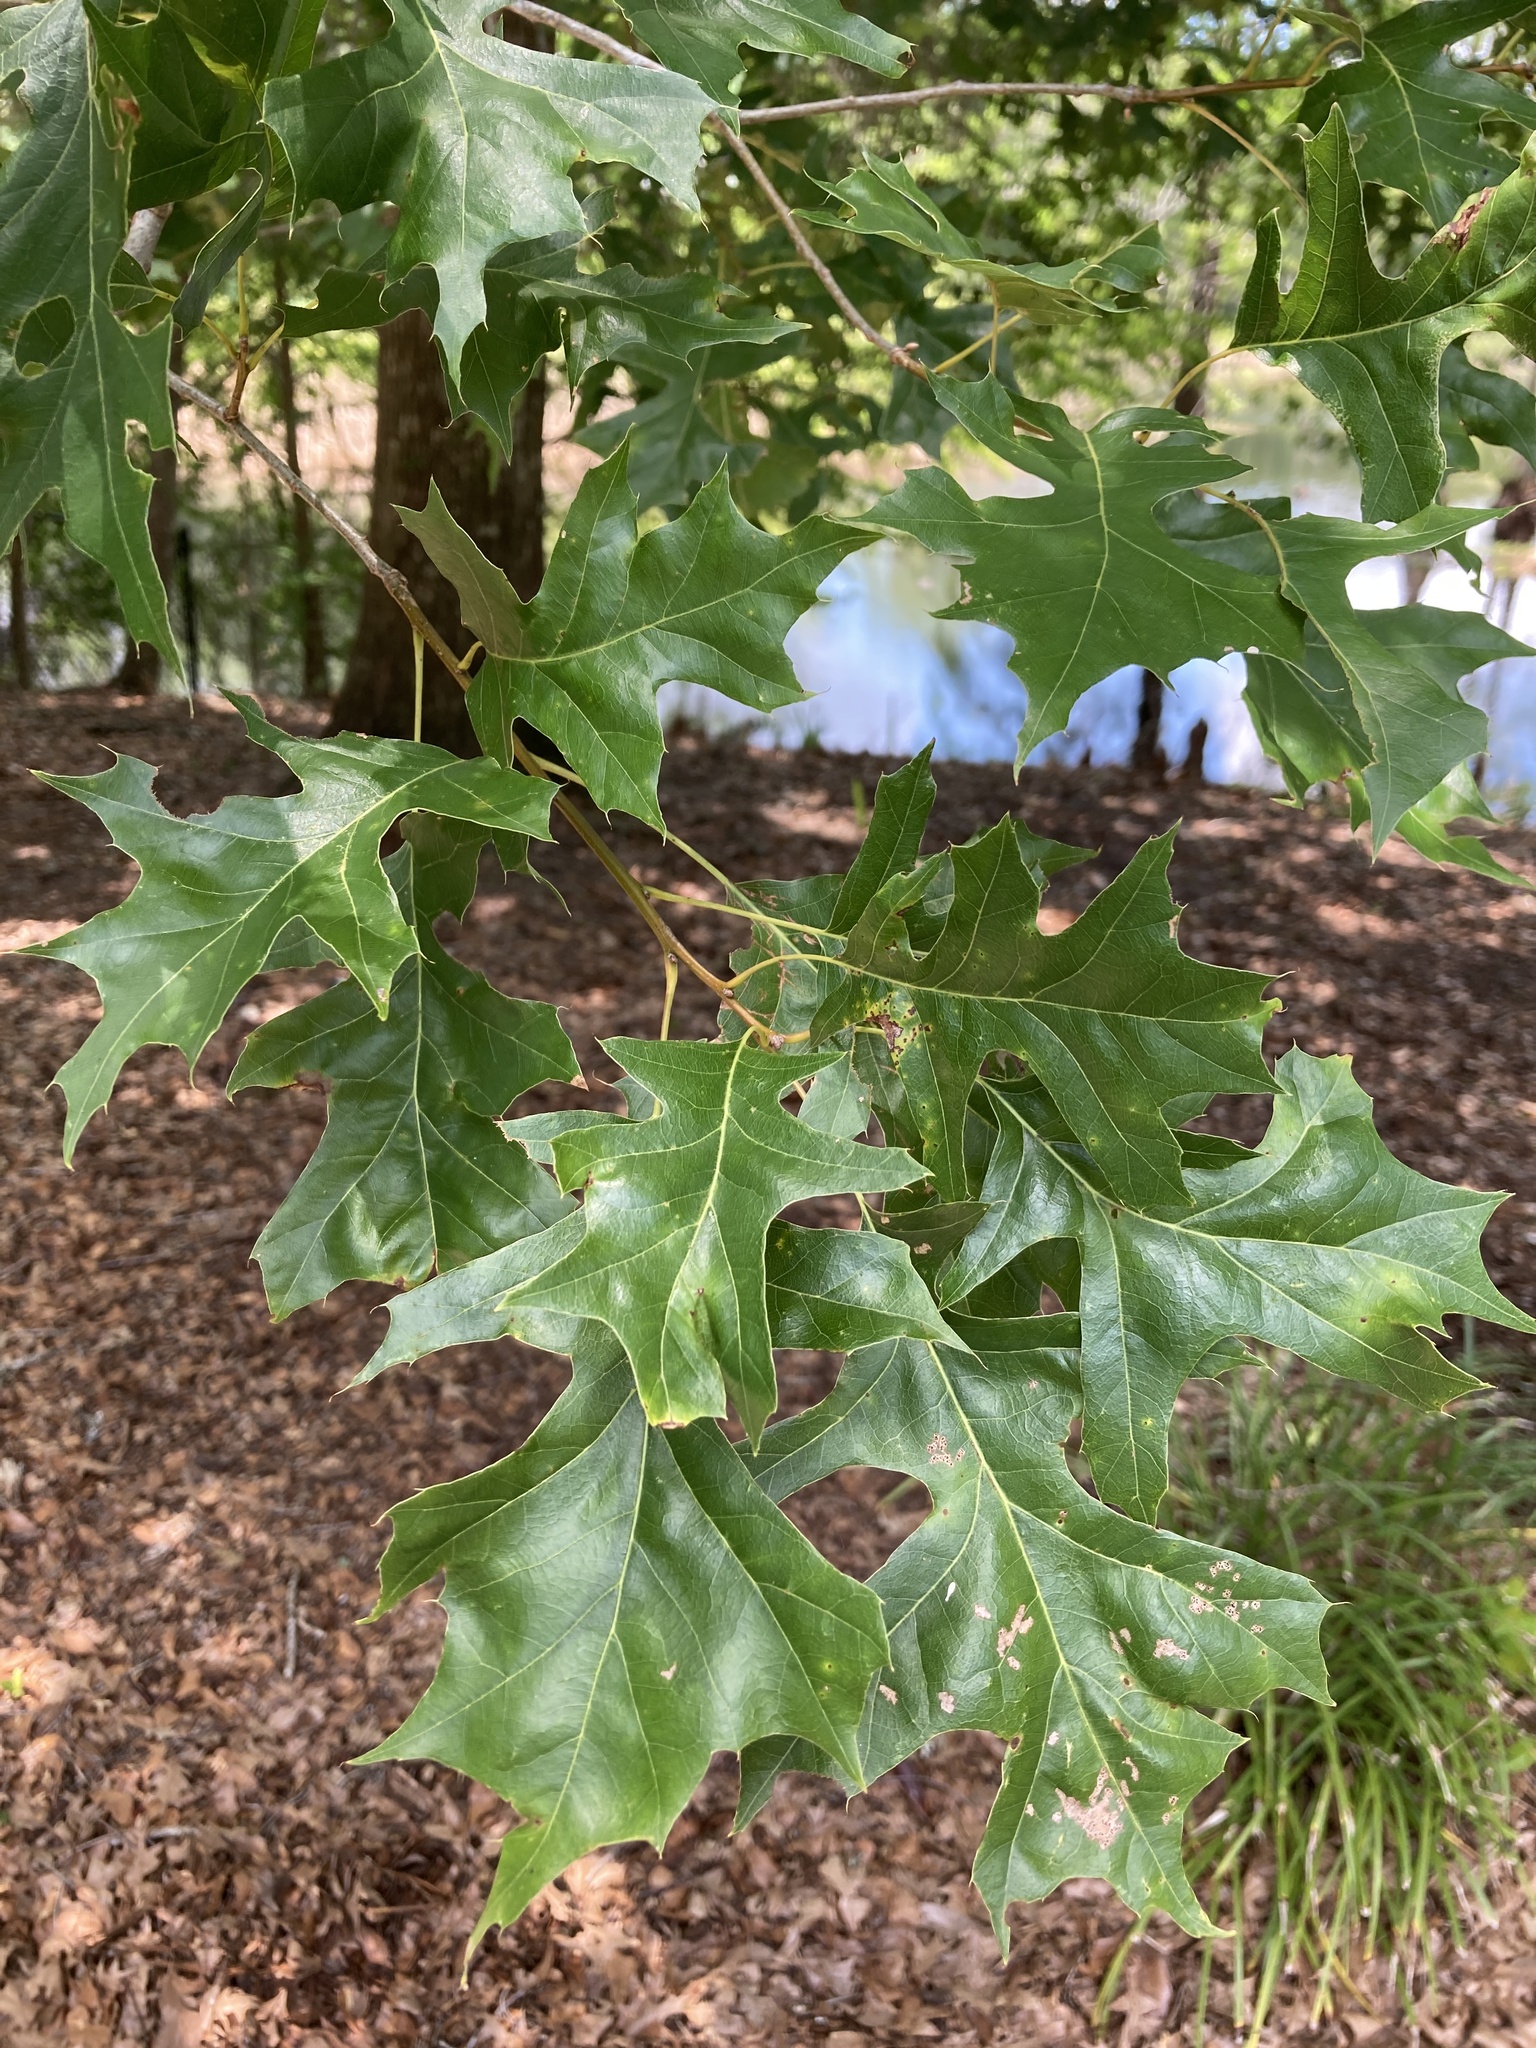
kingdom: Plantae
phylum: Tracheophyta
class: Magnoliopsida
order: Fagales
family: Fagaceae
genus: Quercus
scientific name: Quercus shumardii
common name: Shumard oak
